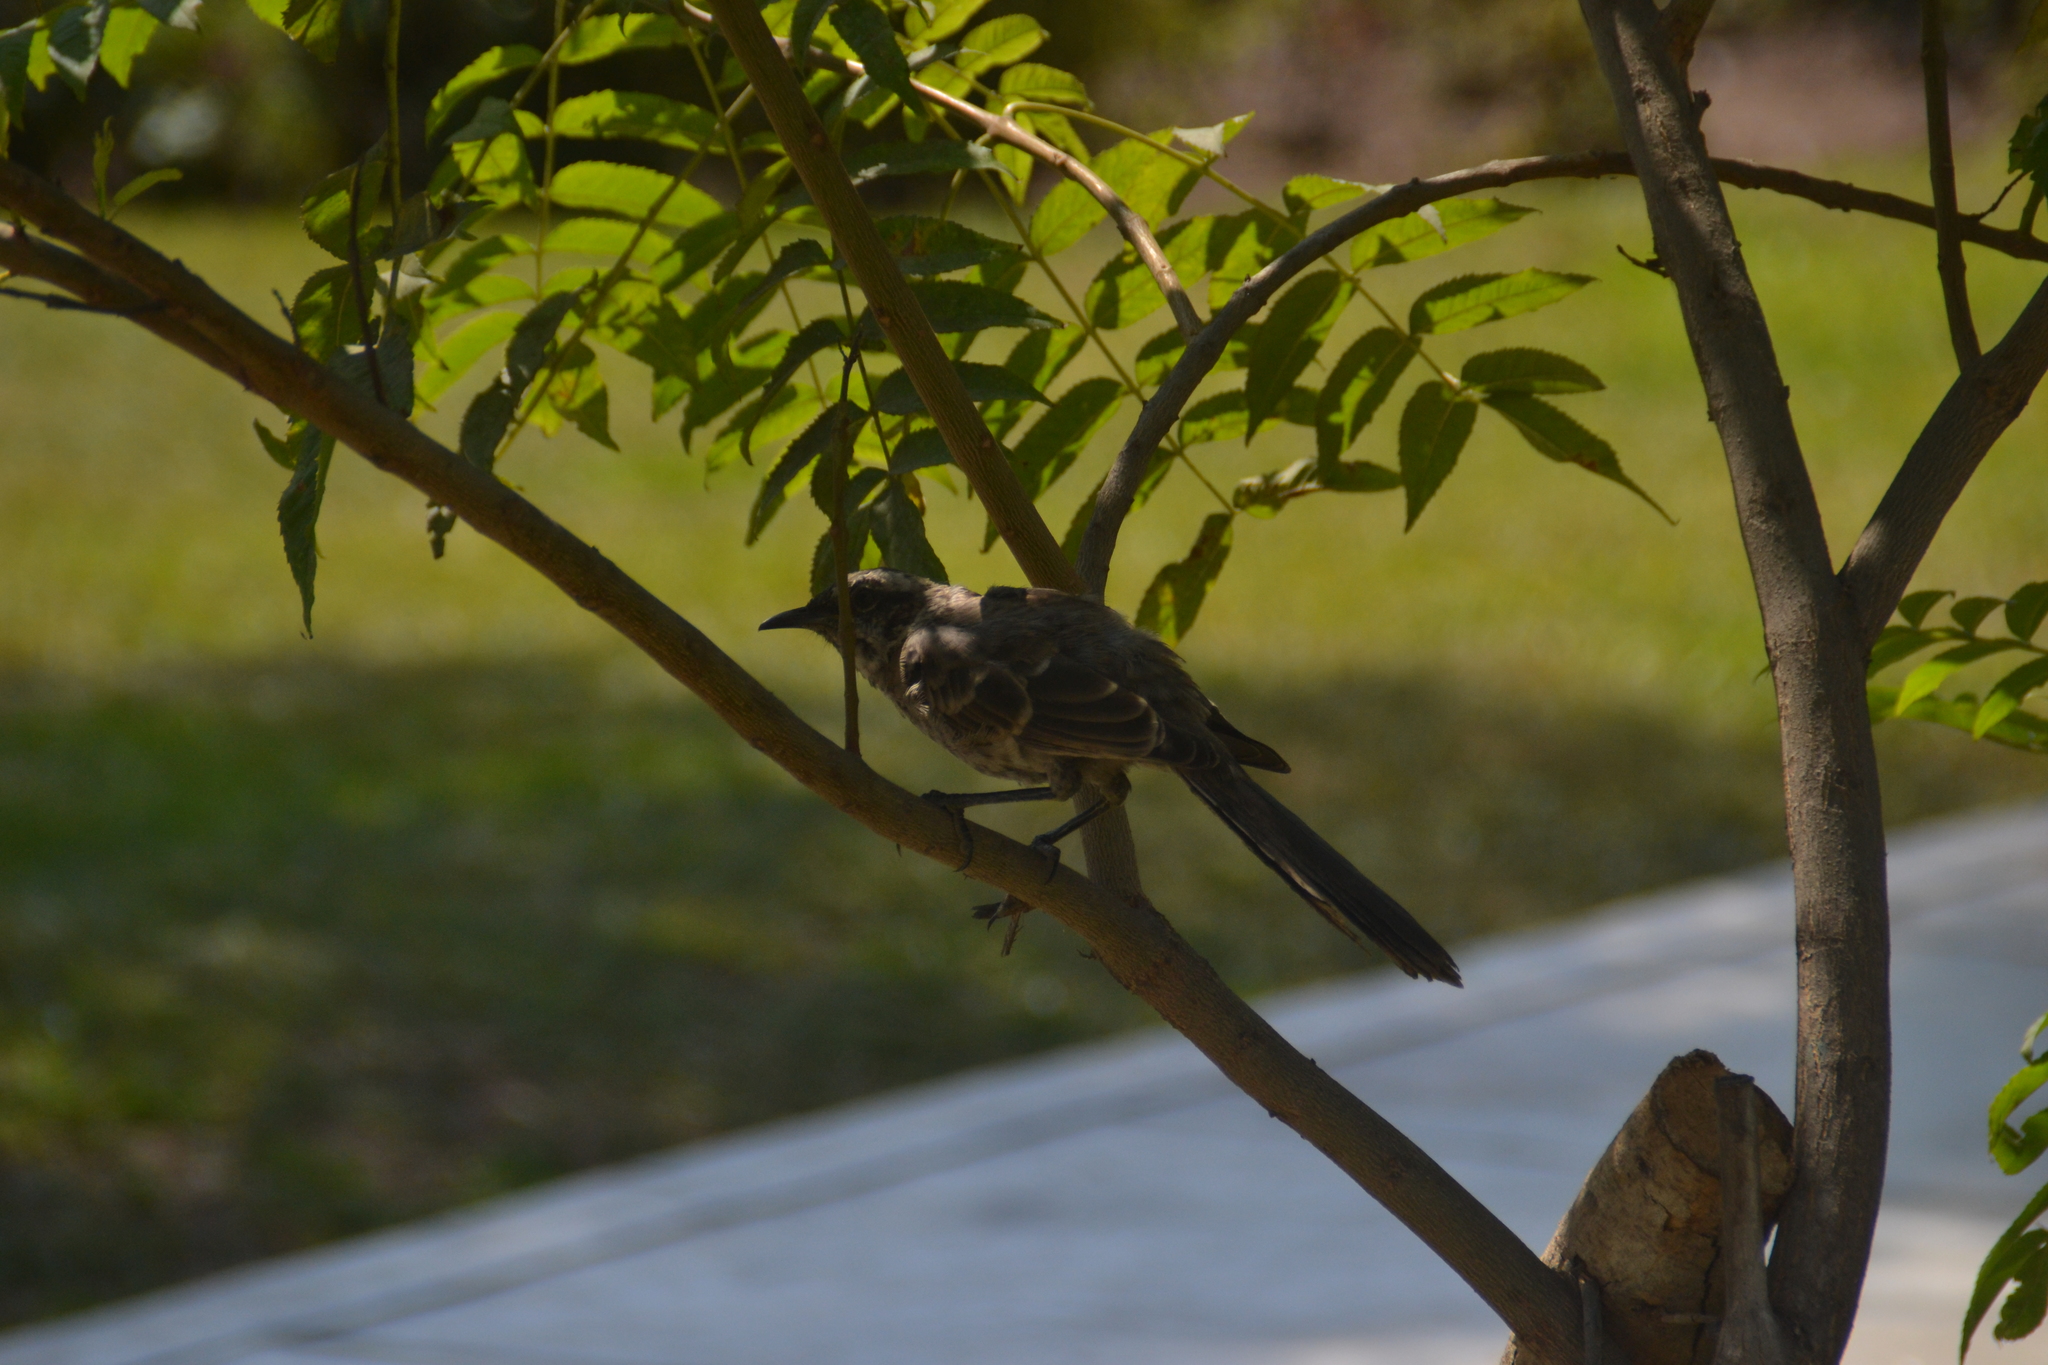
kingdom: Animalia
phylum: Chordata
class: Aves
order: Passeriformes
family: Mimidae
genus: Mimus
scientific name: Mimus longicaudatus
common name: Long-tailed mockingbird
